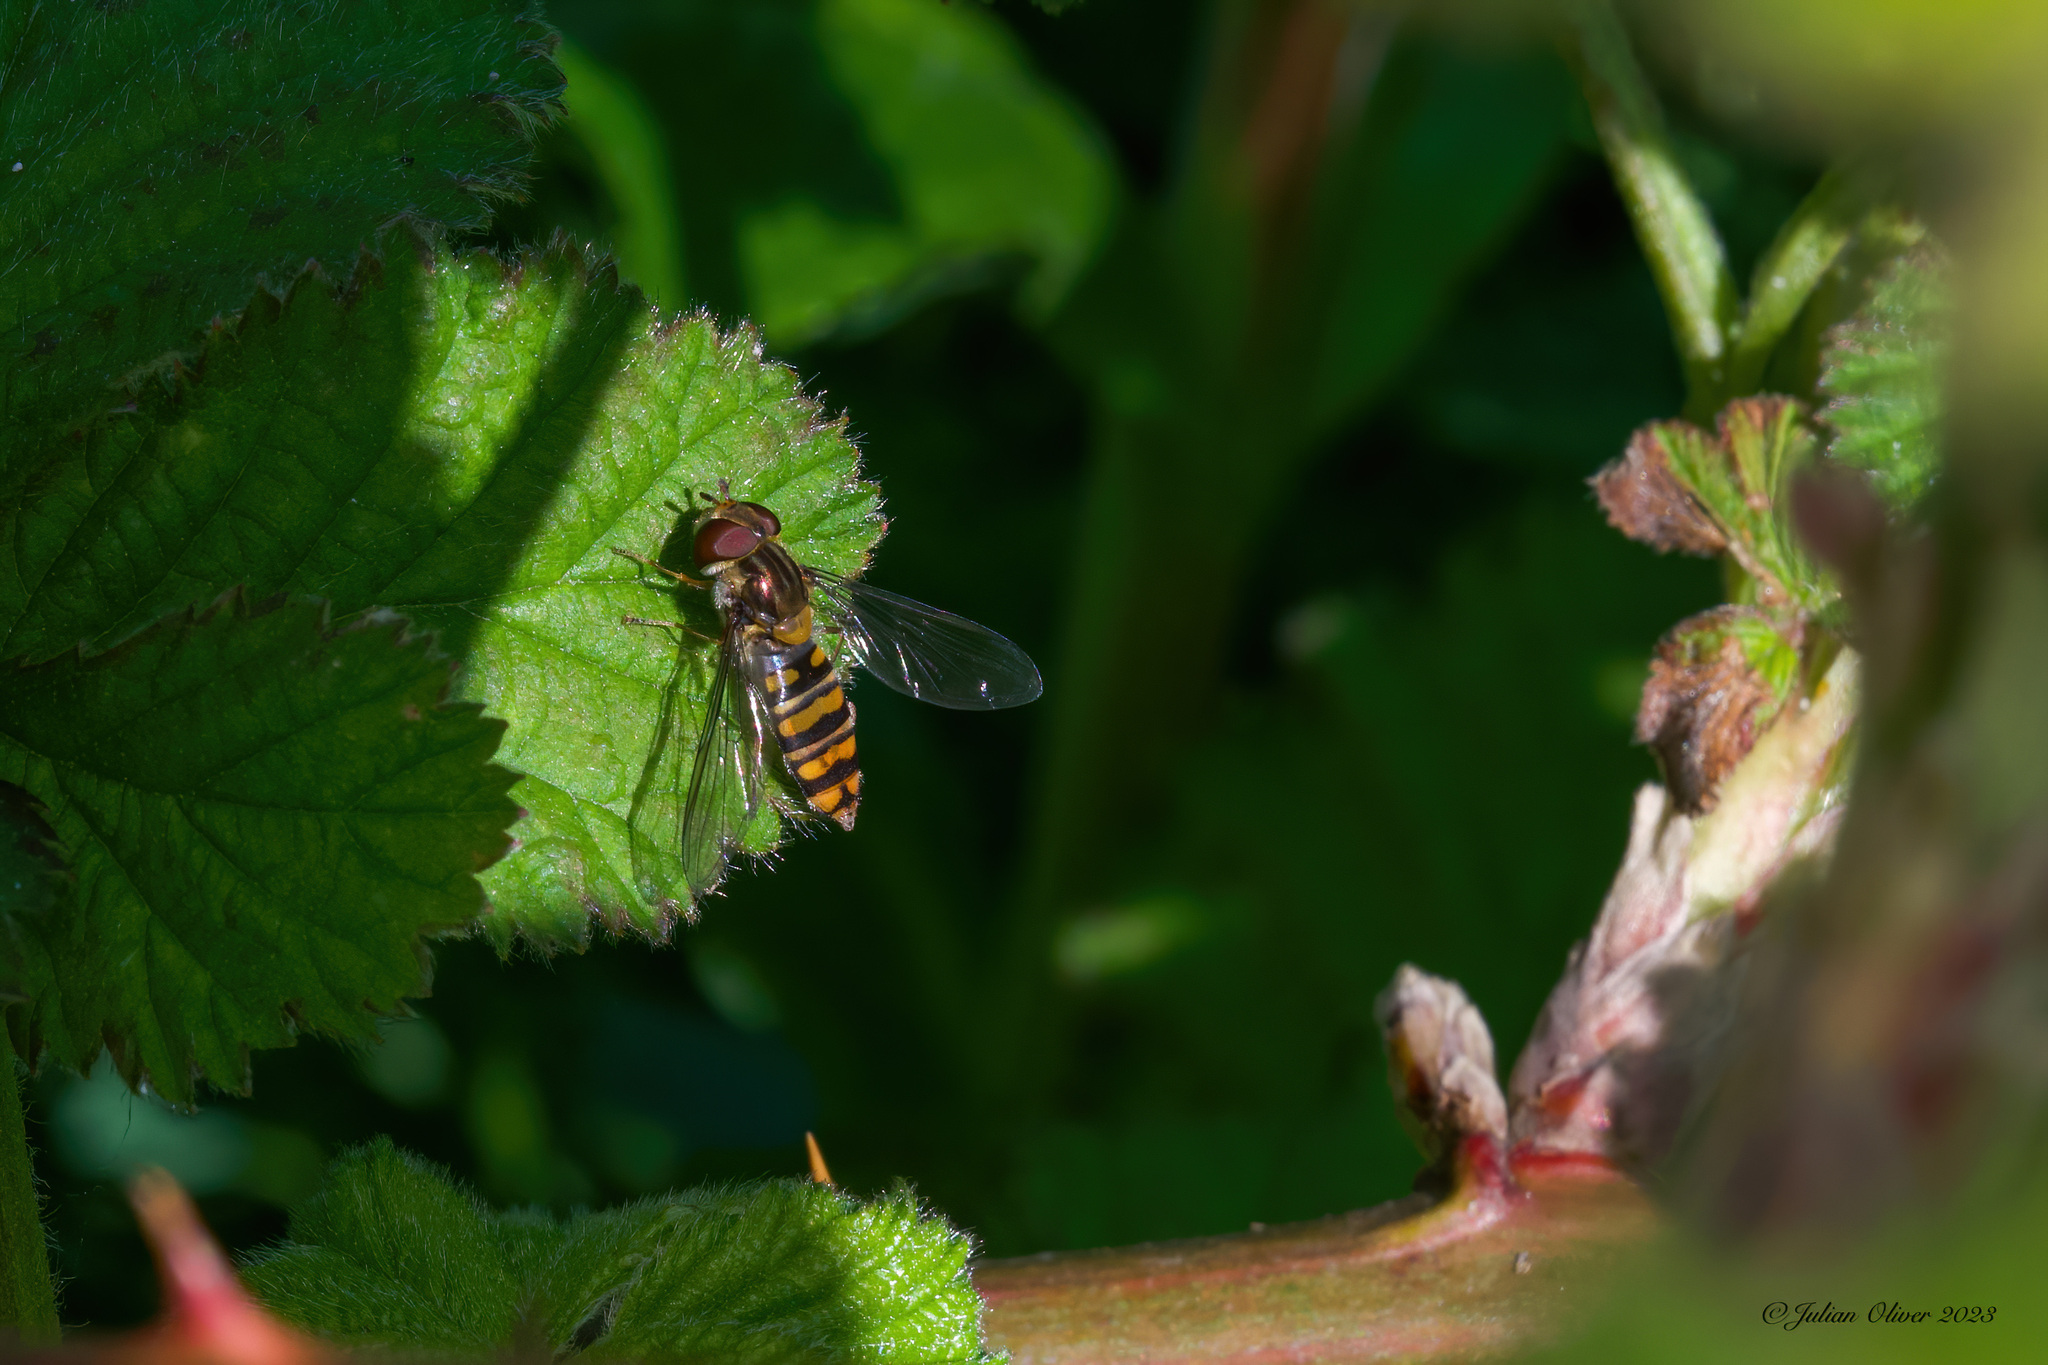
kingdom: Animalia
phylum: Arthropoda
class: Insecta
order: Diptera
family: Syrphidae
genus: Episyrphus
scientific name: Episyrphus balteatus
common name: Marmalade hoverfly
